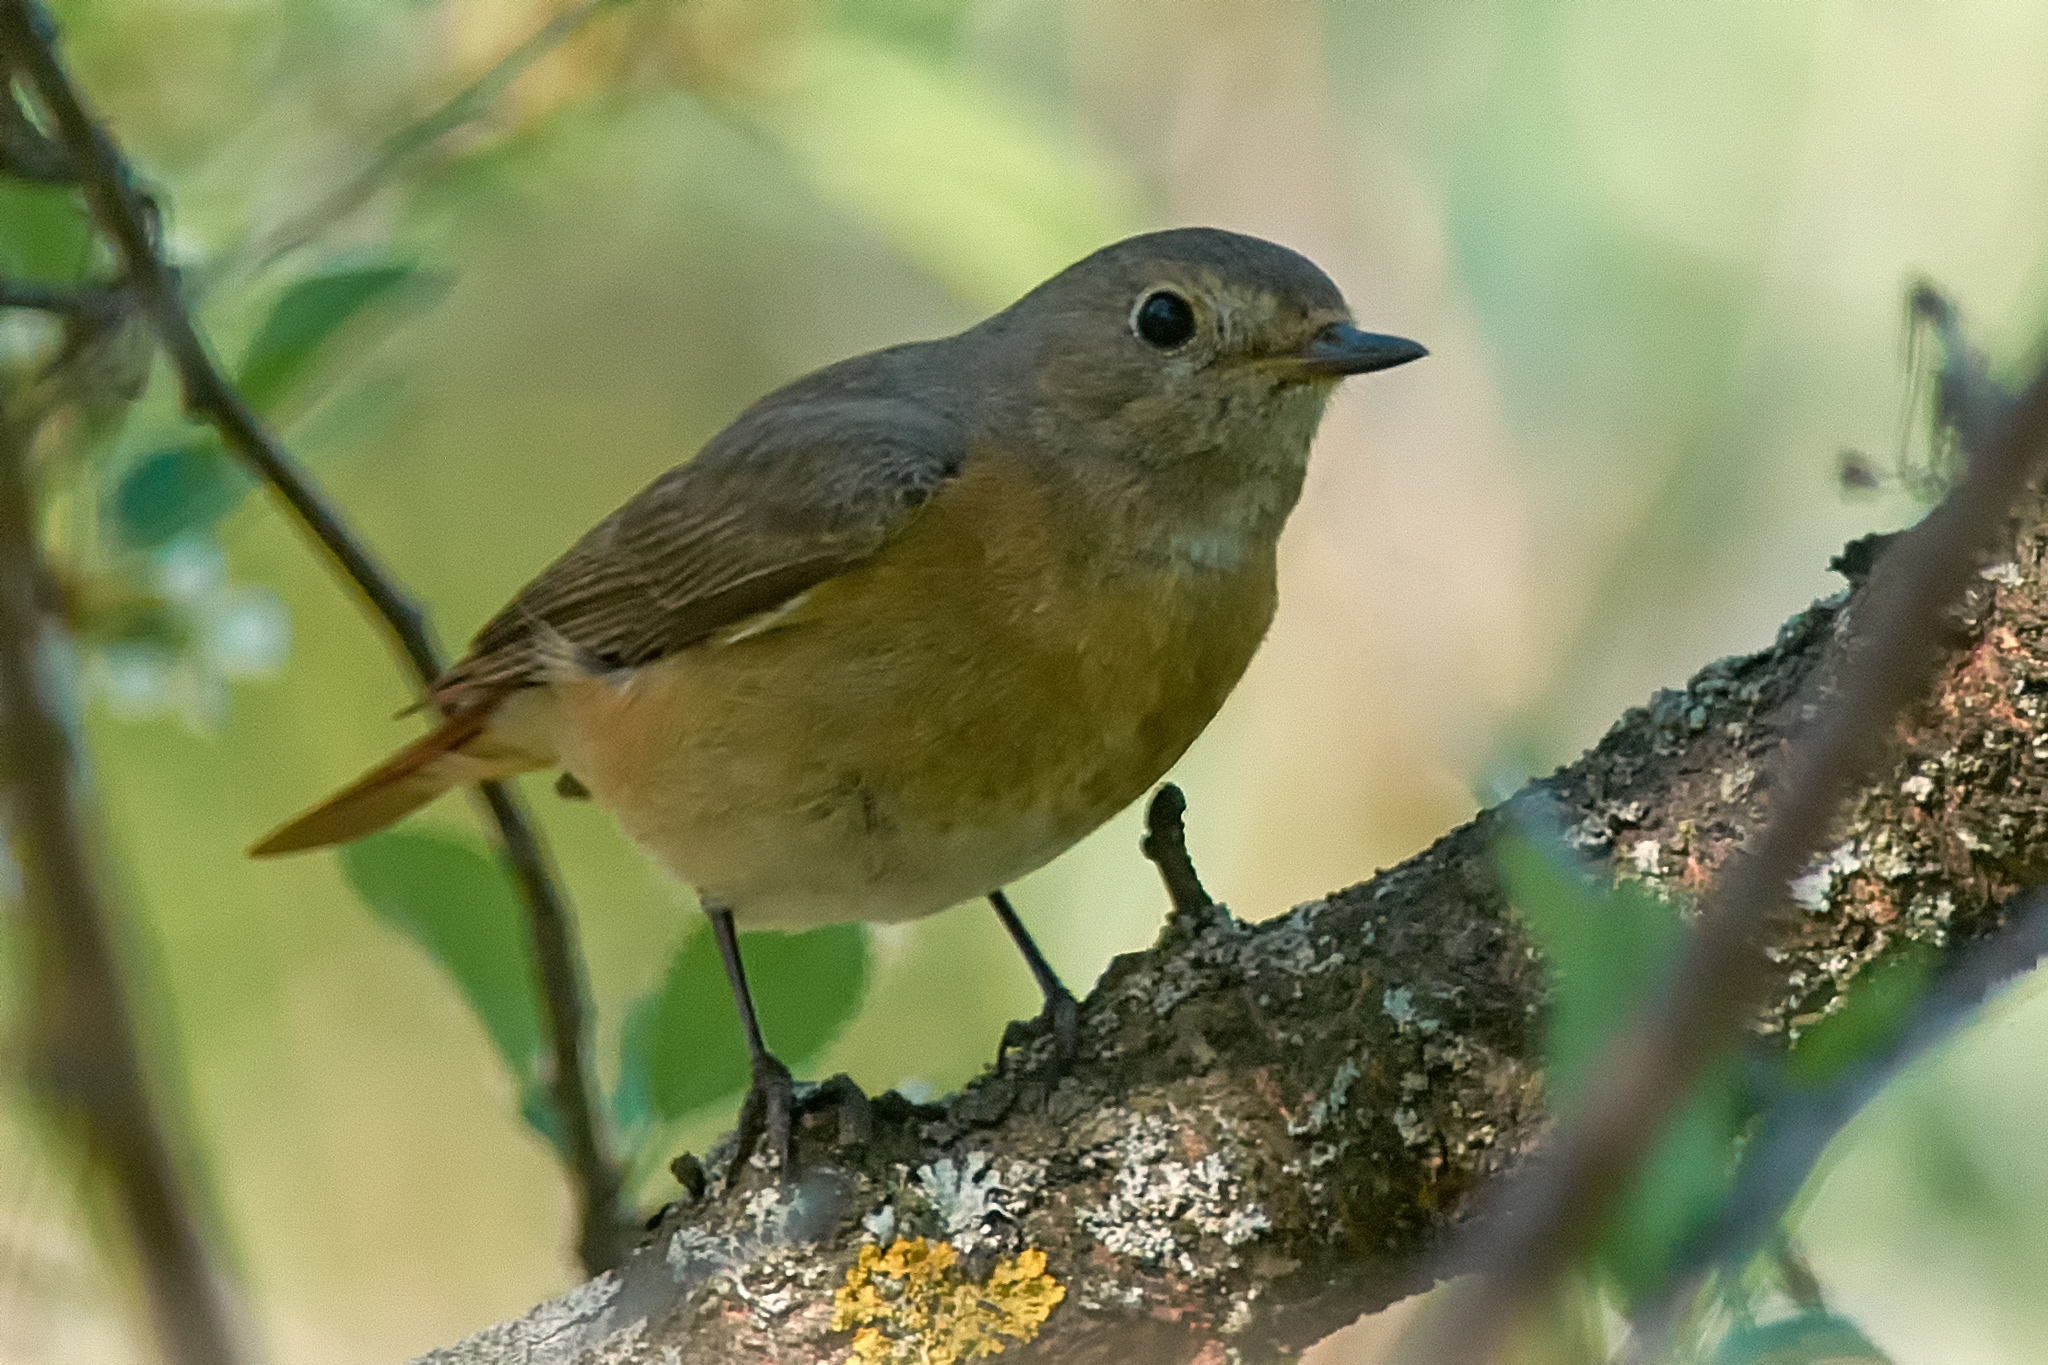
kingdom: Animalia
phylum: Chordata
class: Aves
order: Passeriformes
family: Muscicapidae
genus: Phoenicurus
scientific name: Phoenicurus phoenicurus
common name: Common redstart
